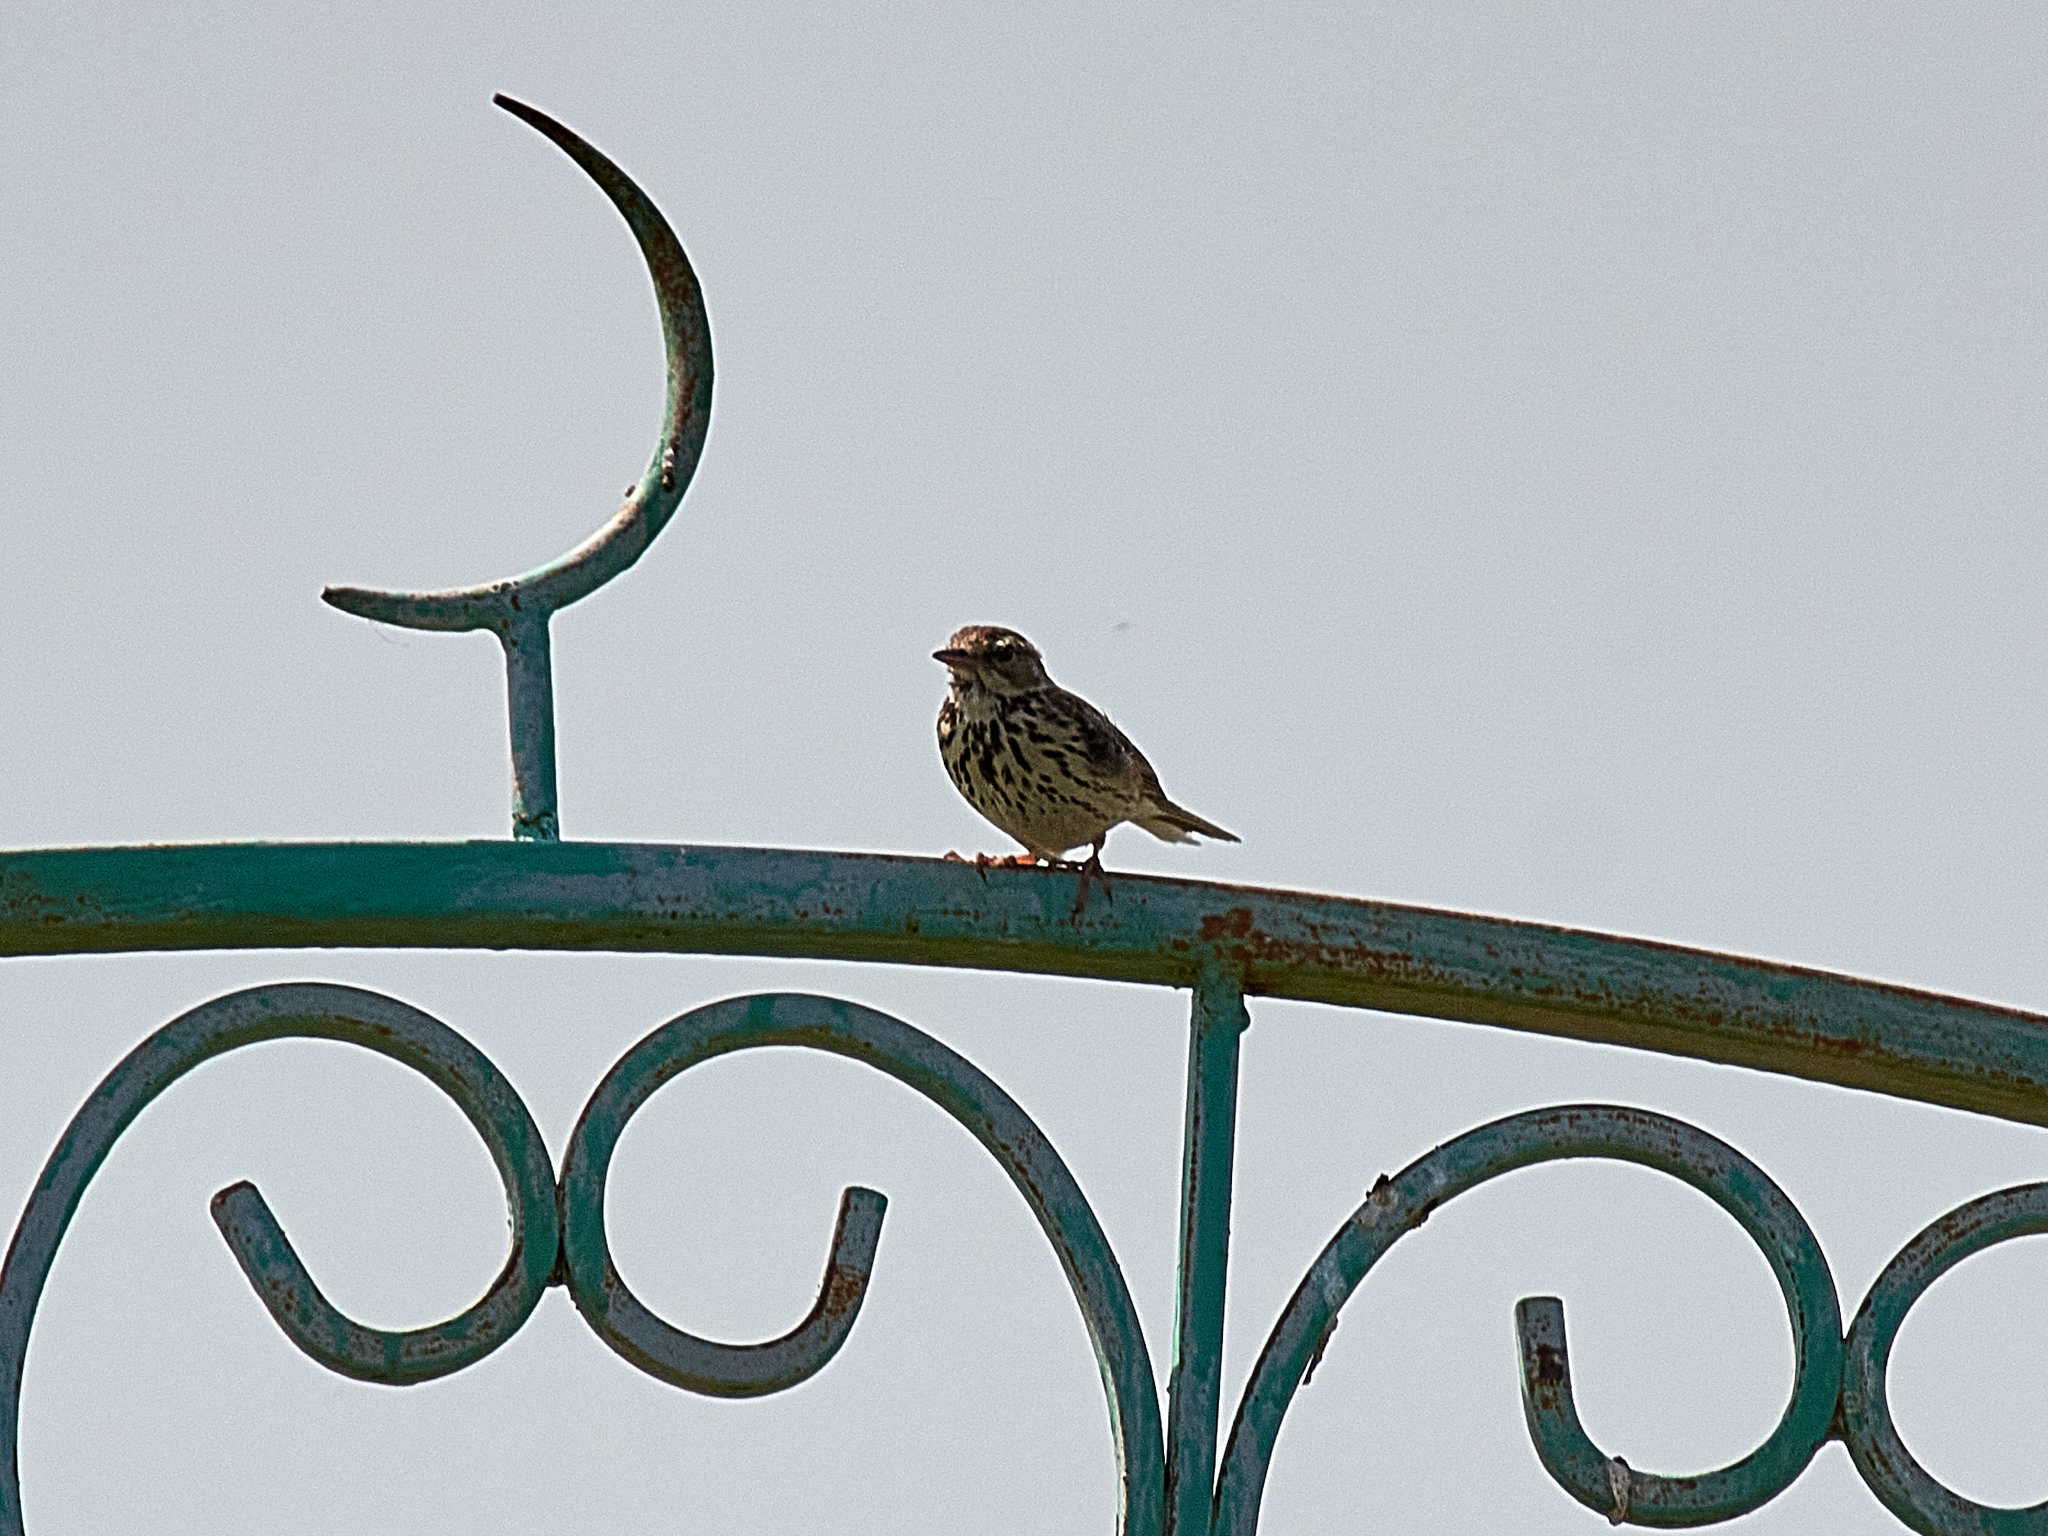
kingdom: Animalia
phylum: Chordata
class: Aves
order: Passeriformes
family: Motacillidae
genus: Anthus
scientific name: Anthus pratensis
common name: Meadow pipit
